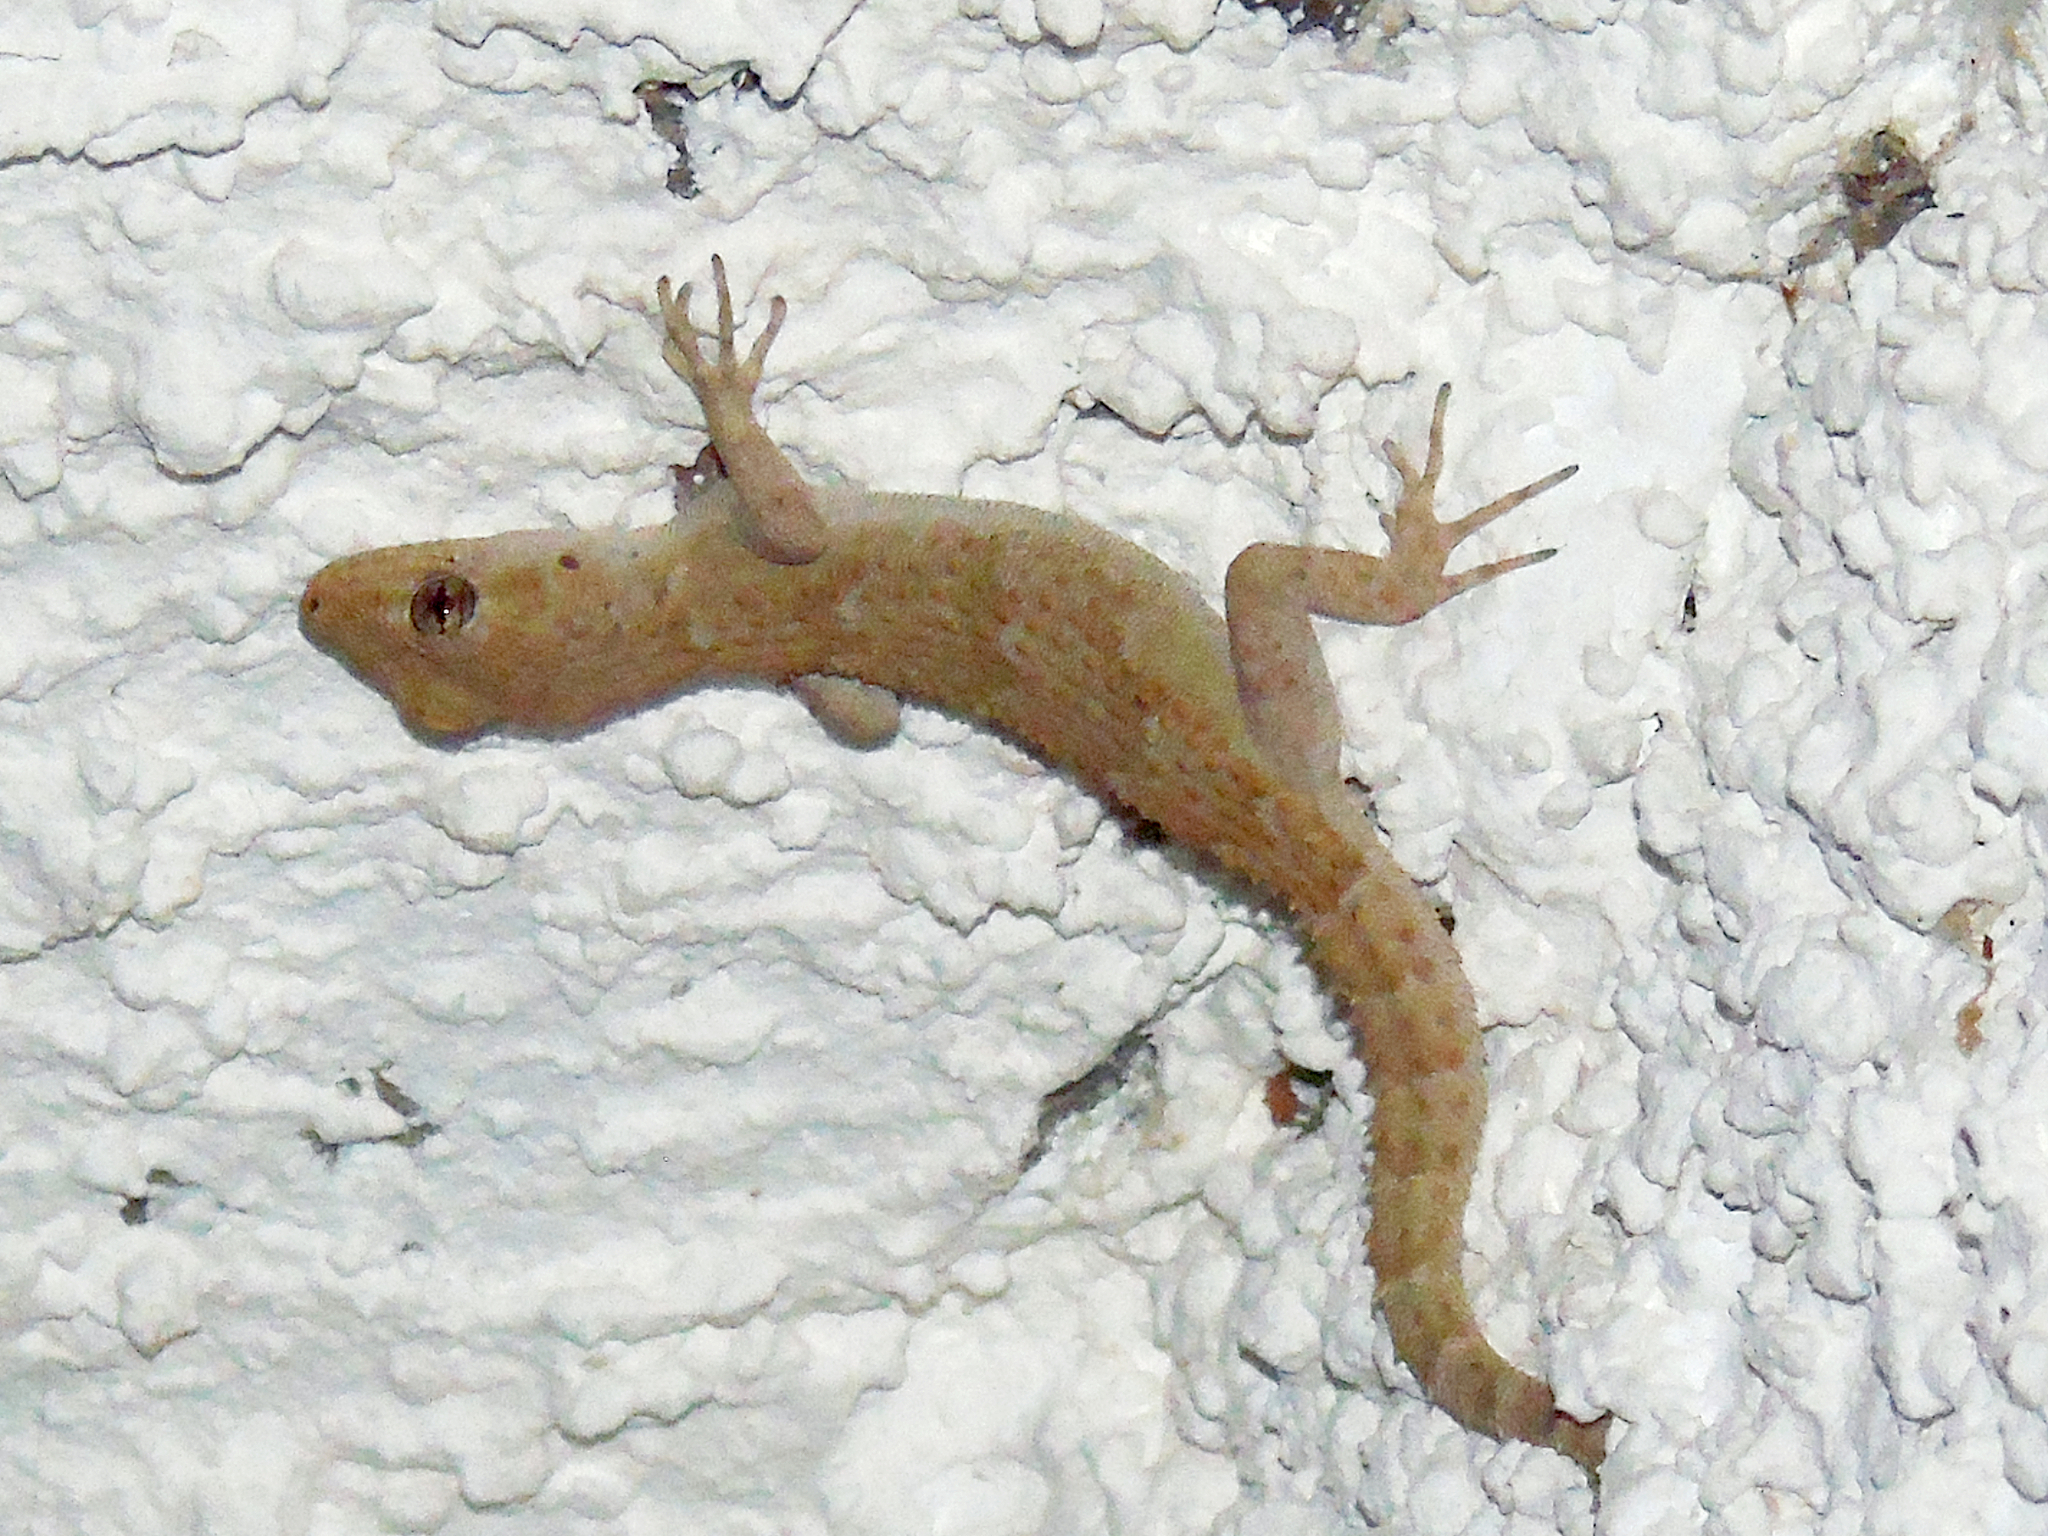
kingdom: Animalia
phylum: Chordata
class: Squamata
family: Gekkonidae
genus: Mediodactylus
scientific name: Mediodactylus kotschyi
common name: Kotschy's gecko
